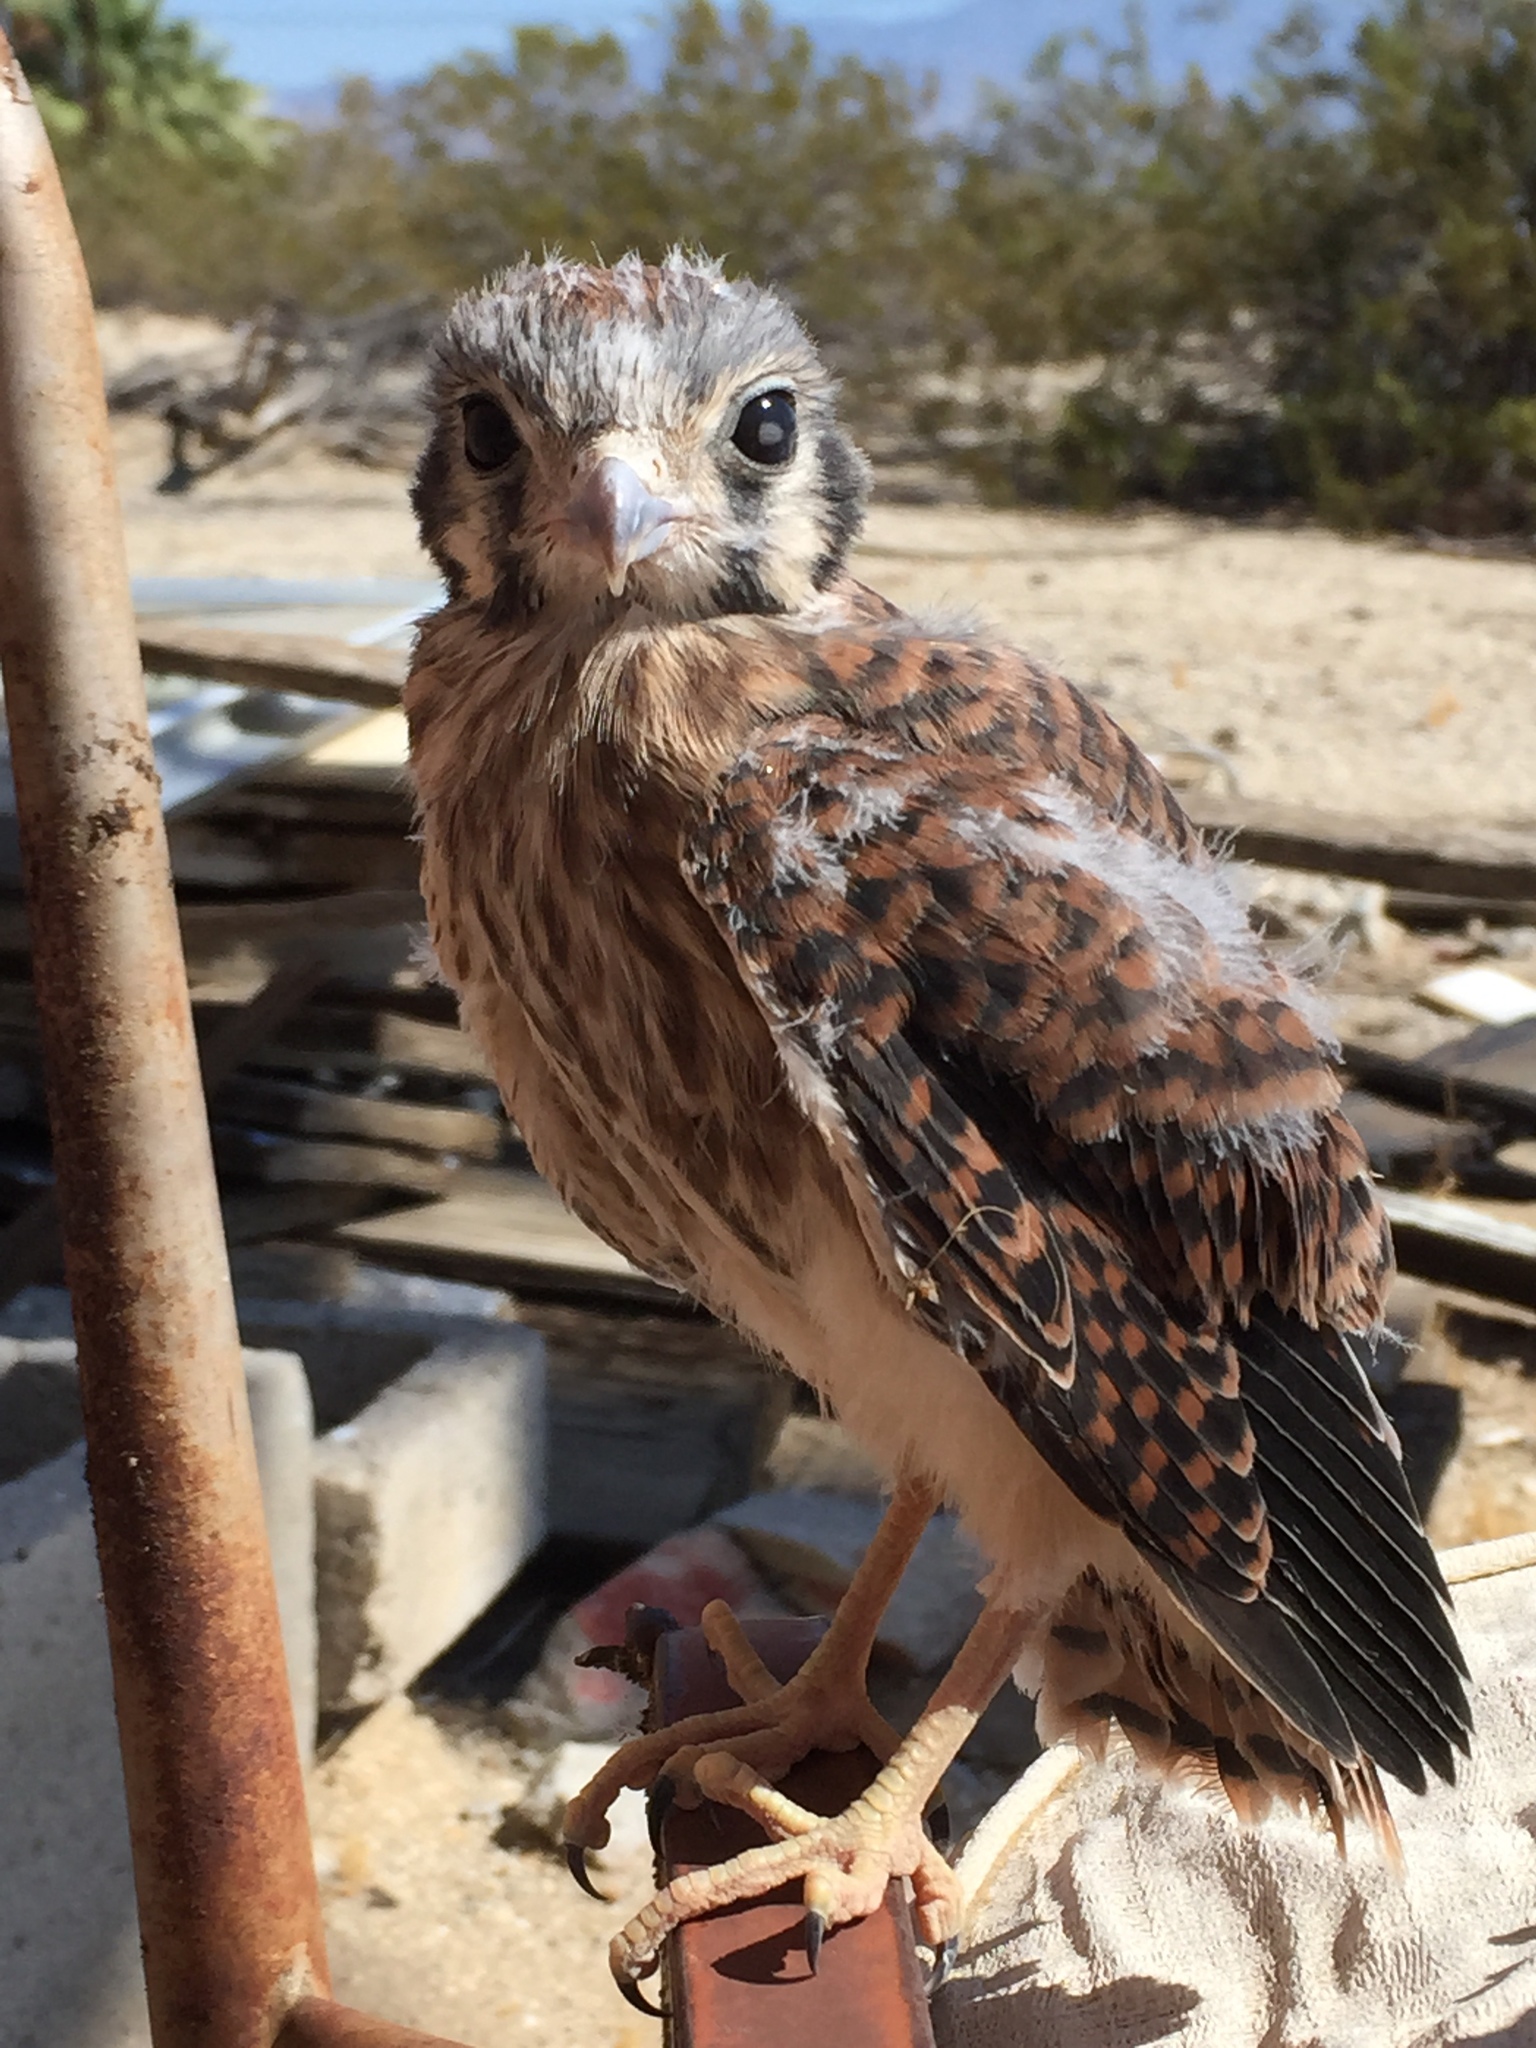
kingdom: Animalia
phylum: Chordata
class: Aves
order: Falconiformes
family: Falconidae
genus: Falco
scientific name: Falco sparverius
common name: American kestrel
